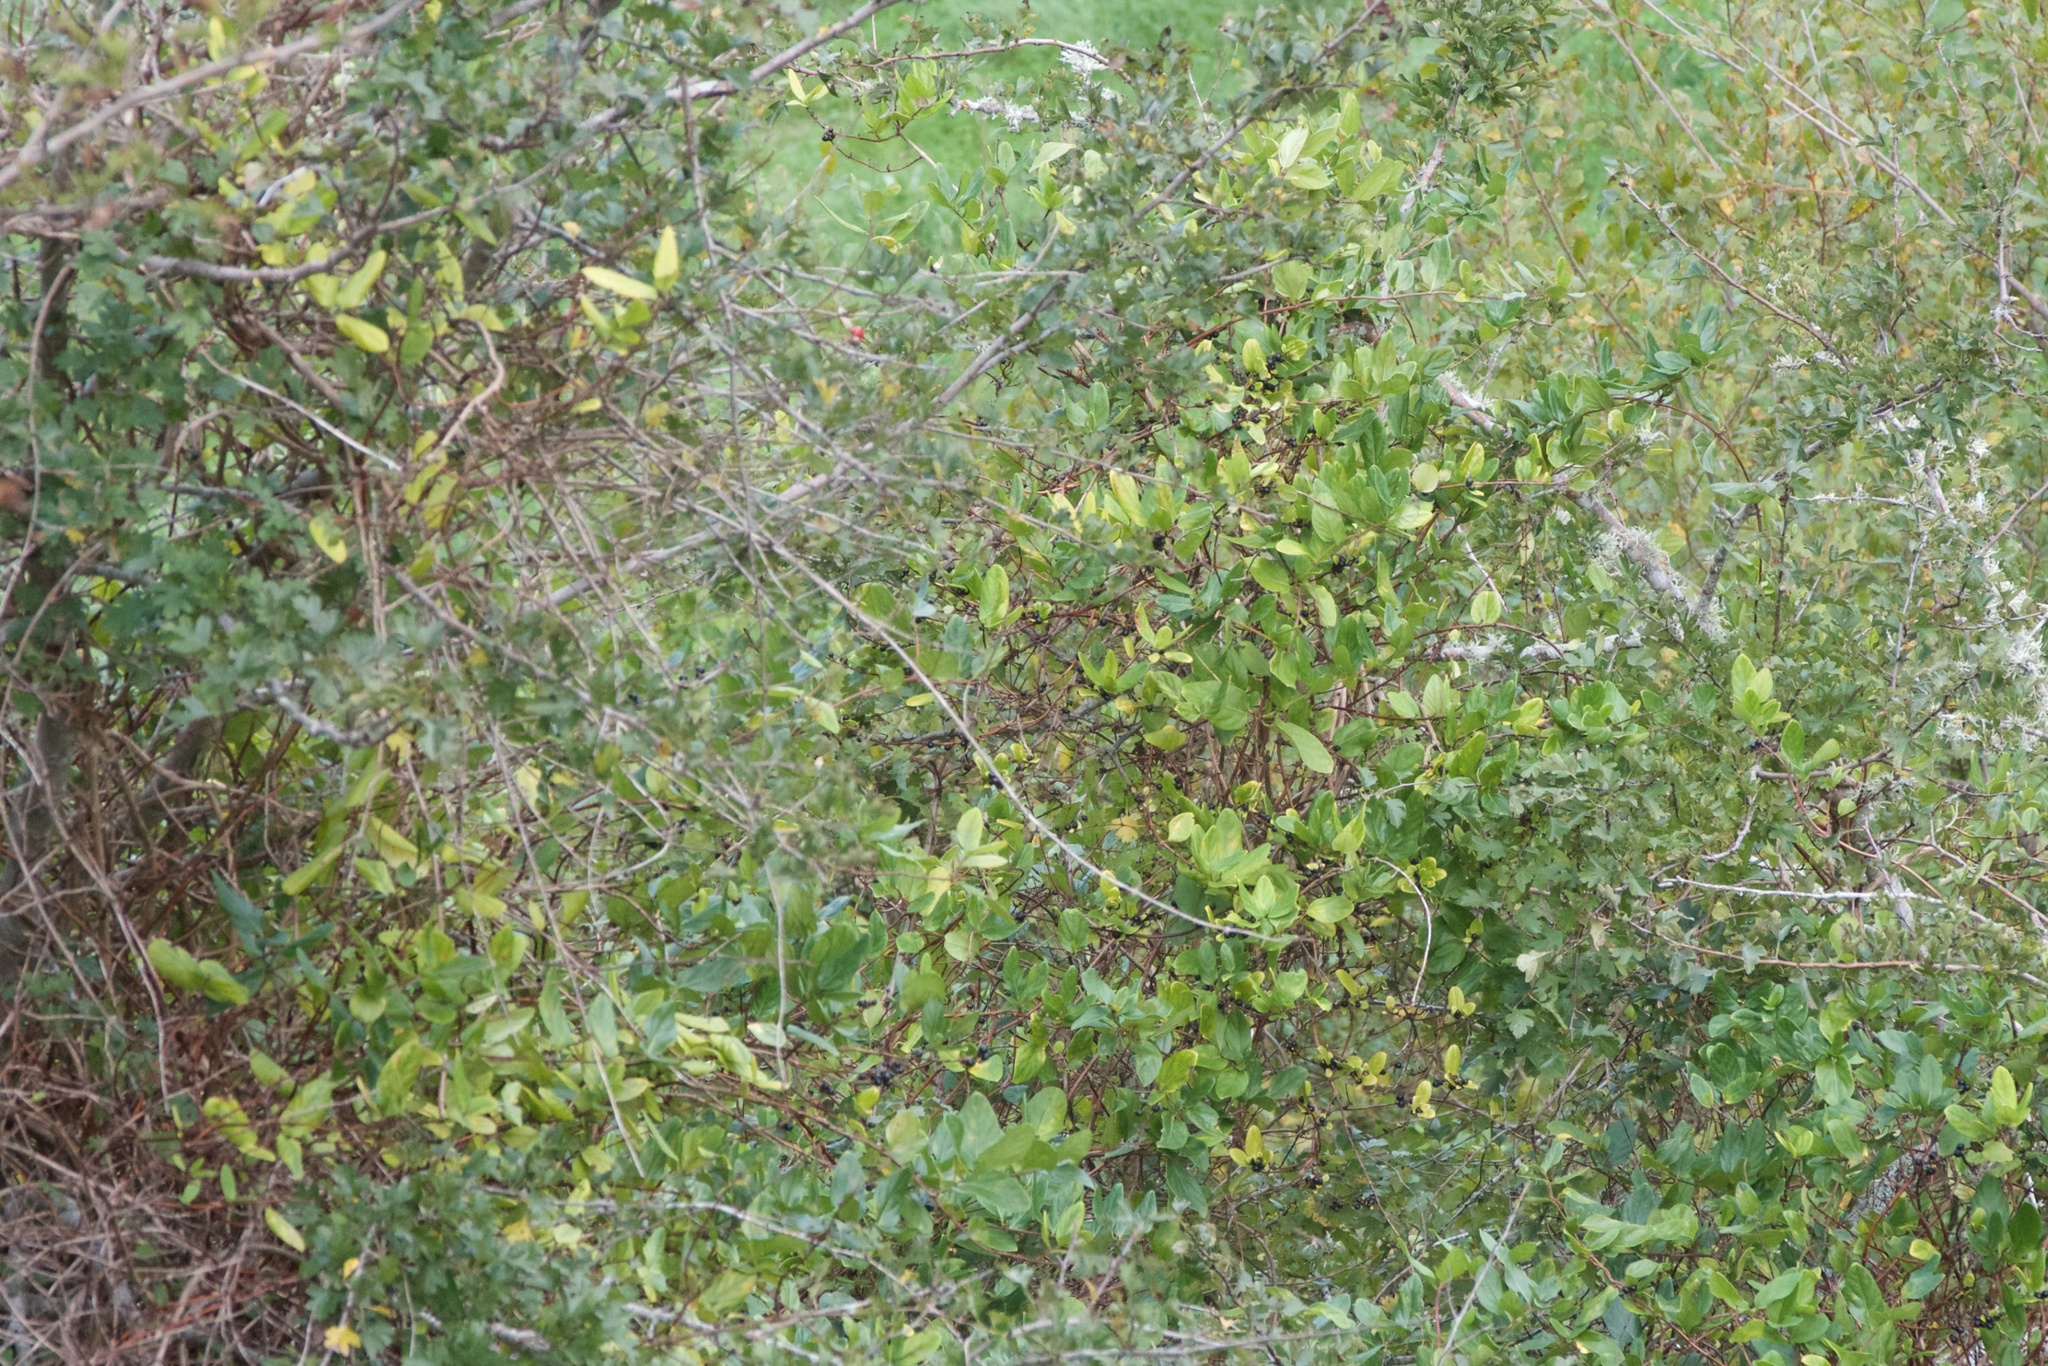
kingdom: Plantae
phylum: Tracheophyta
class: Magnoliopsida
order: Dipsacales
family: Caprifoliaceae
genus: Lonicera
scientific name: Lonicera japonica
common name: Japanese honeysuckle
